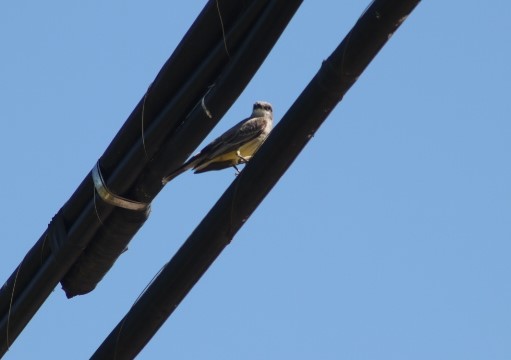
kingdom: Animalia
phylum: Chordata
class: Aves
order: Passeriformes
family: Tyrannidae
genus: Tyrannus
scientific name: Tyrannus vociferans
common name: Cassin's kingbird
